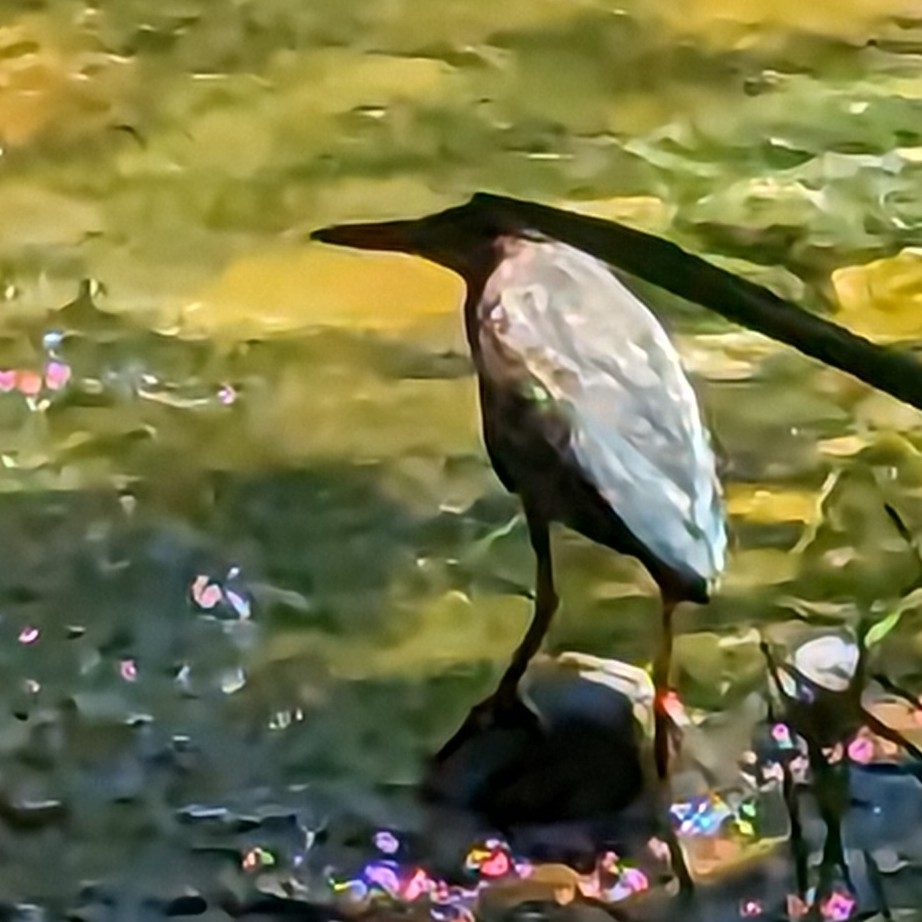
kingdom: Animalia
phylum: Chordata
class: Aves
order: Pelecaniformes
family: Ardeidae
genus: Butorides
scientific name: Butorides virescens
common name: Green heron
